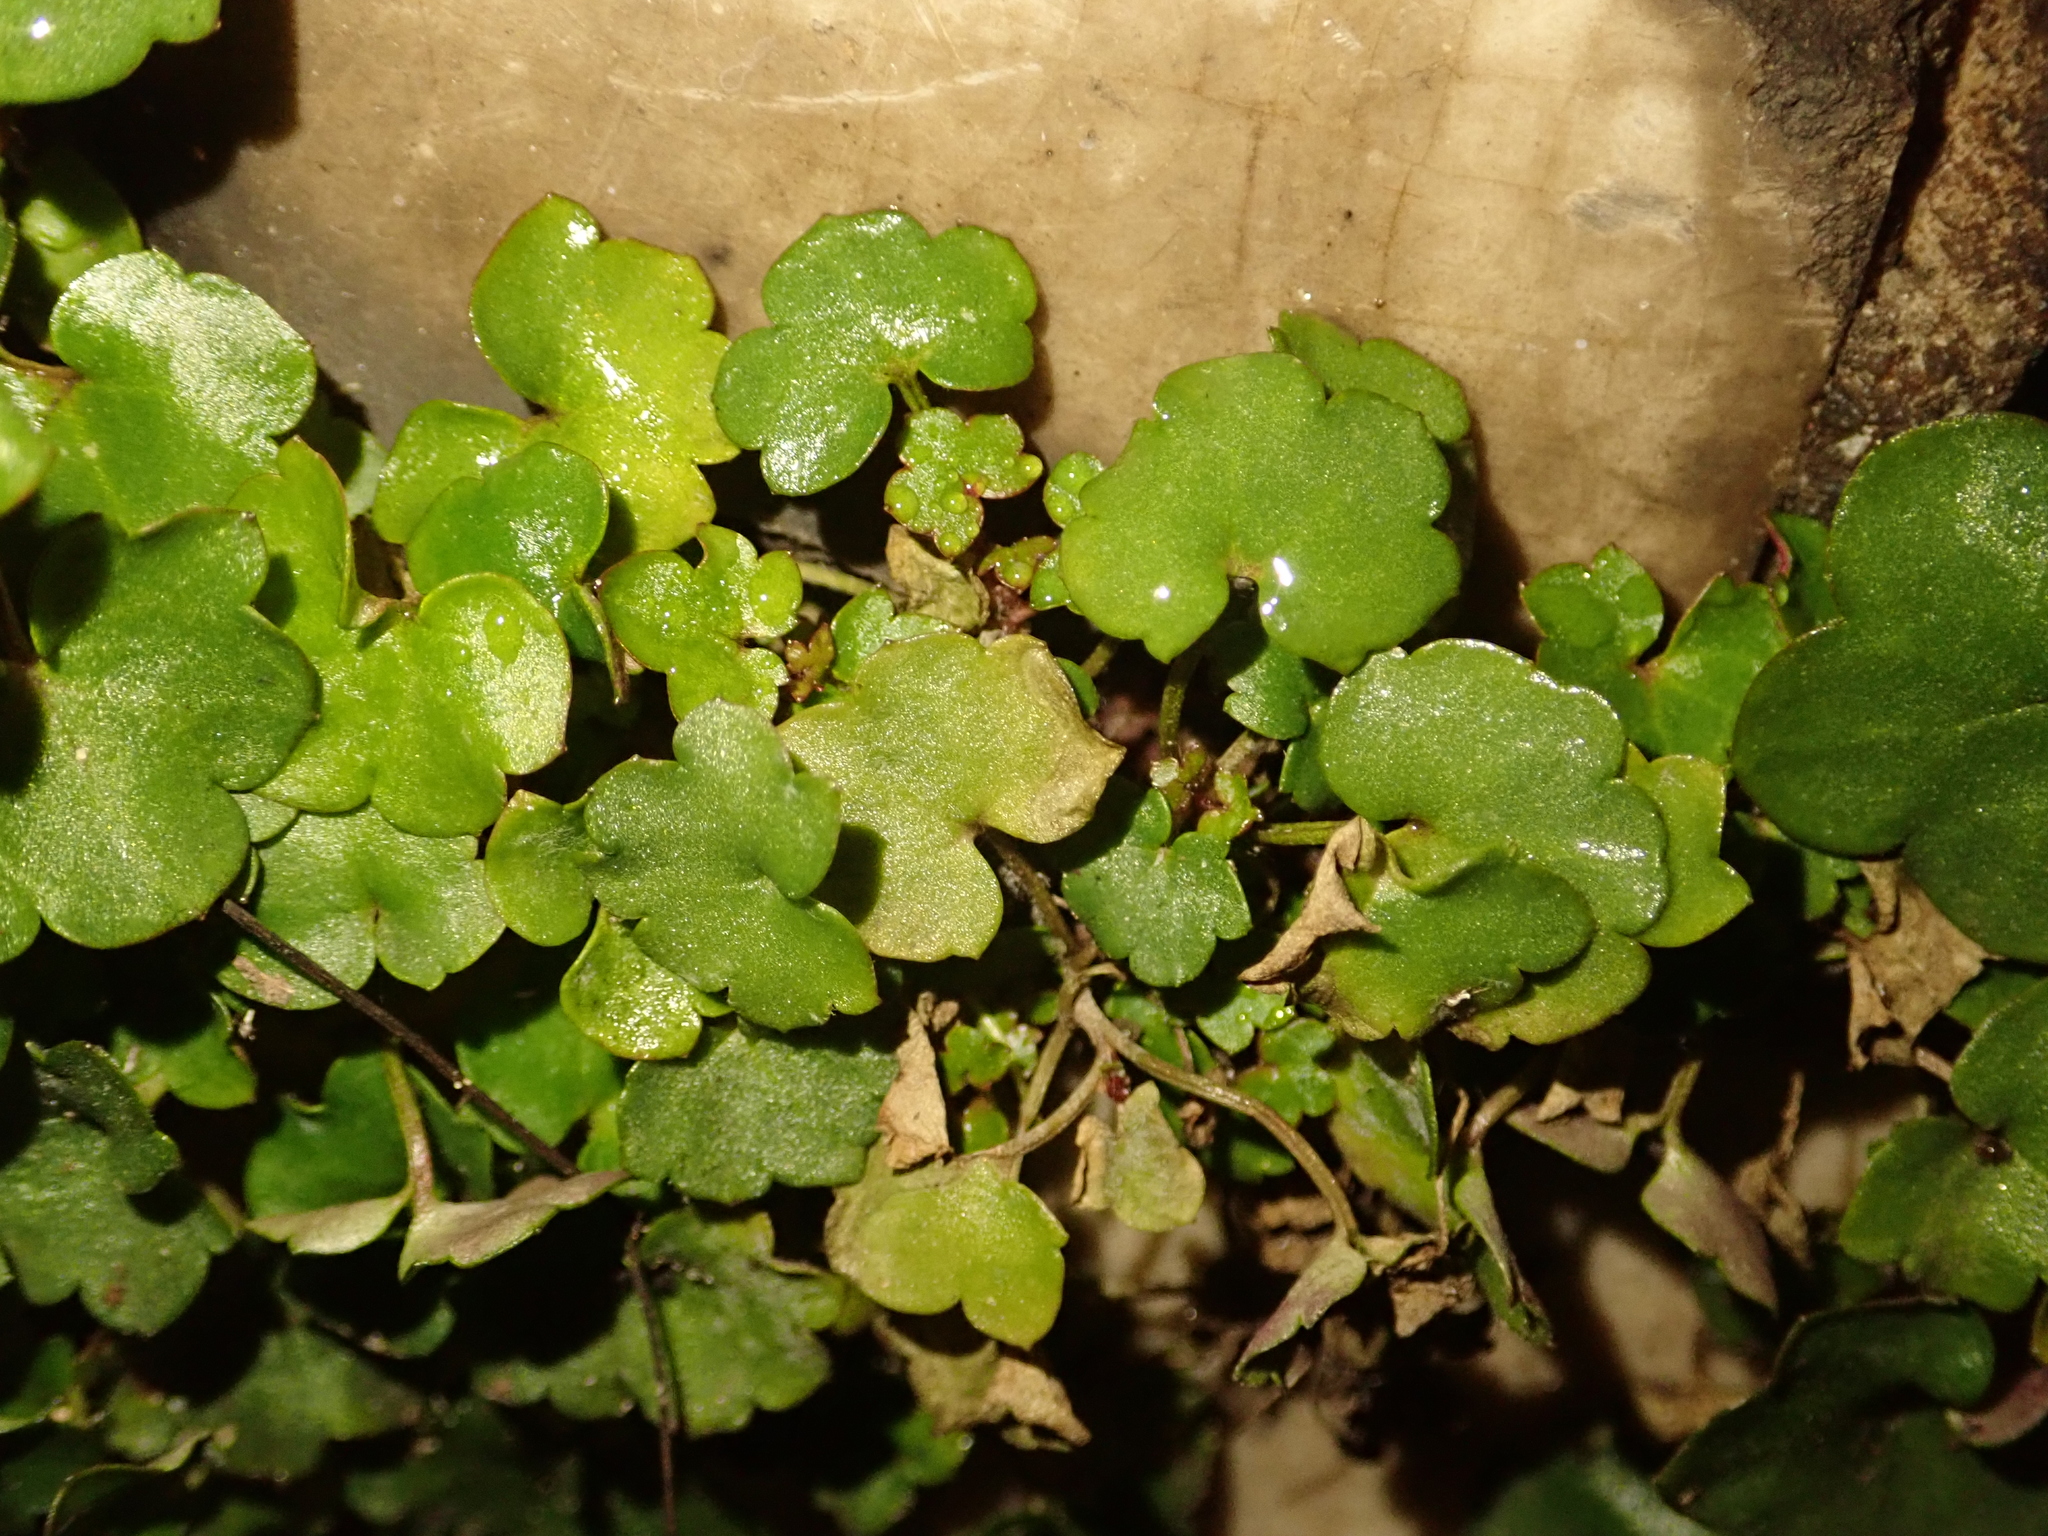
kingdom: Plantae
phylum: Tracheophyta
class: Magnoliopsida
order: Lamiales
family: Plantaginaceae
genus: Cymbalaria
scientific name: Cymbalaria muralis
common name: Ivy-leaved toadflax
